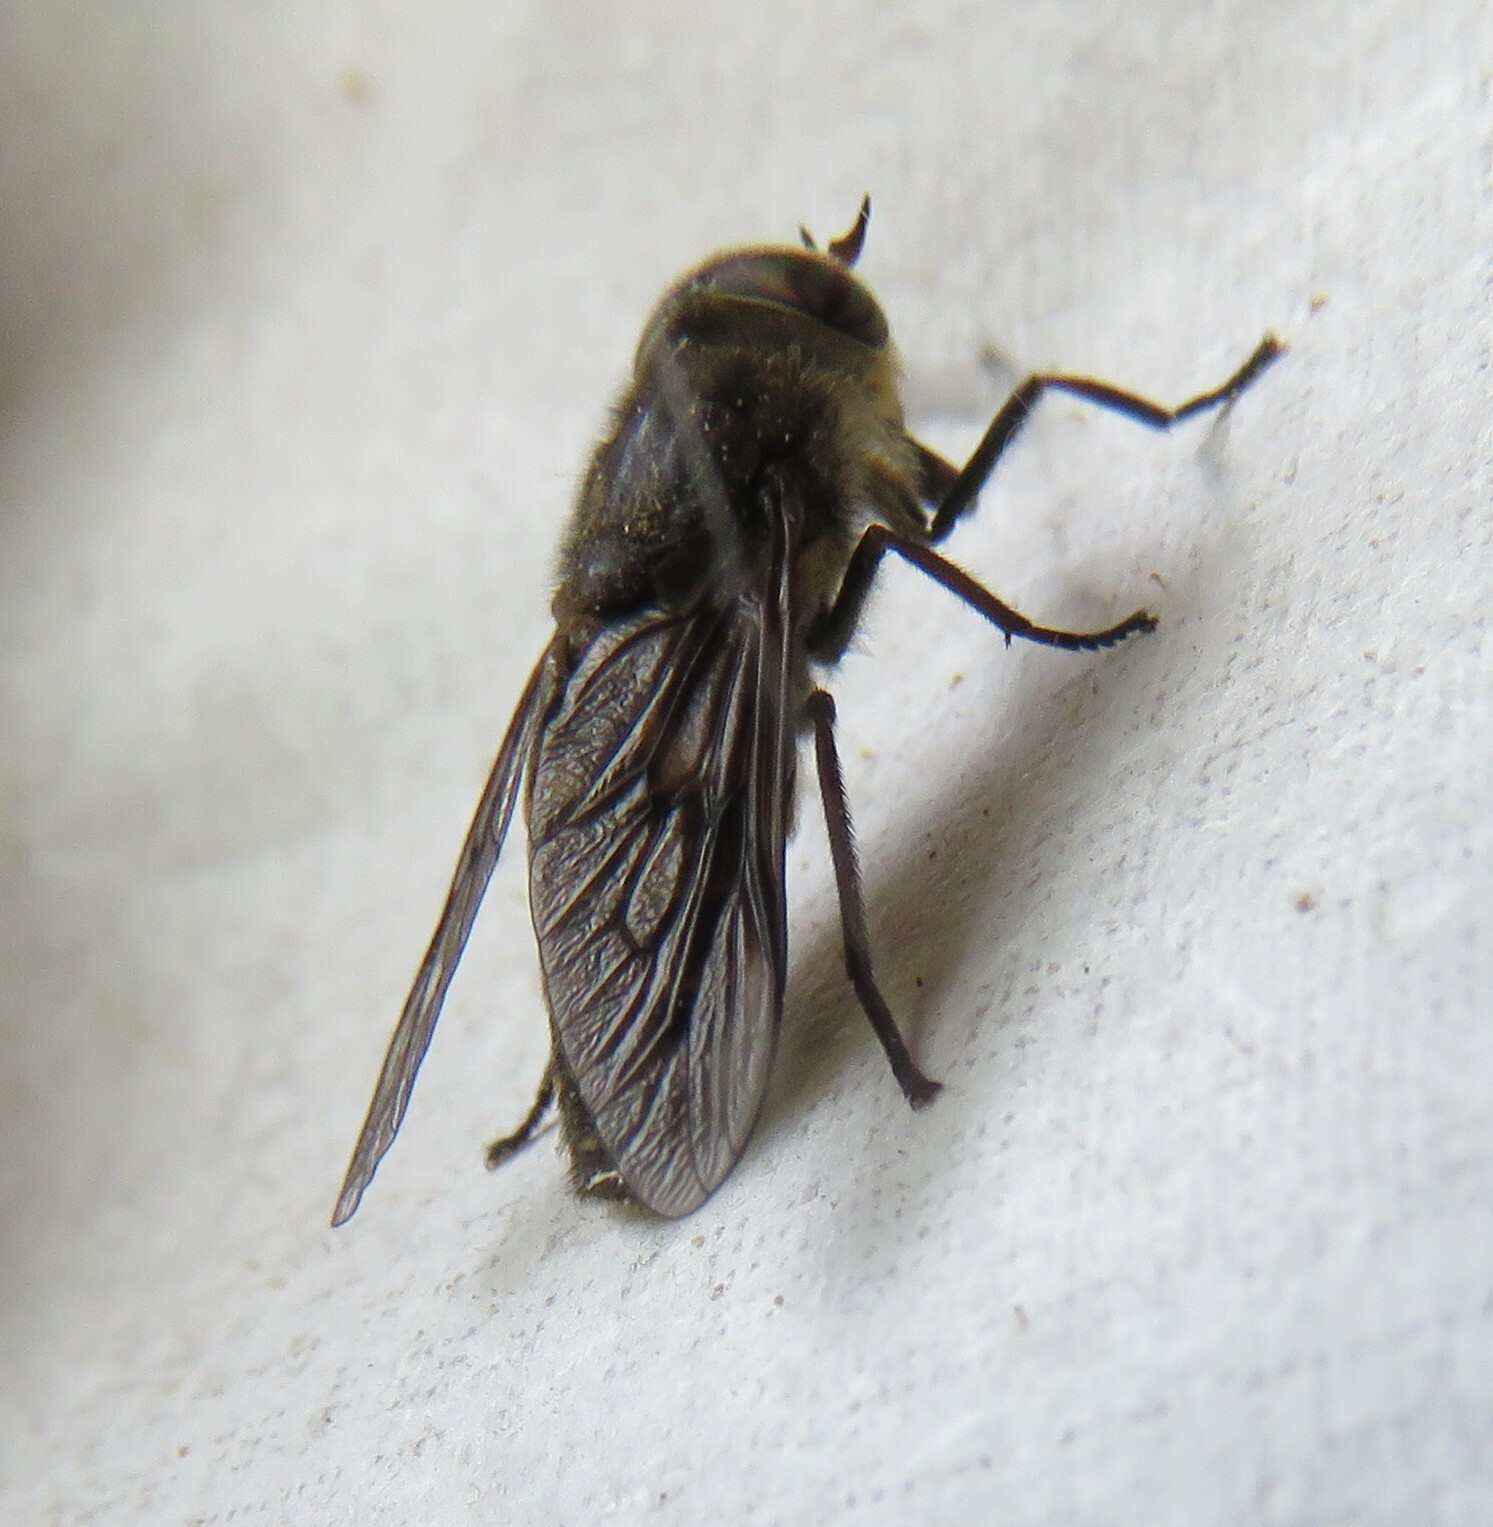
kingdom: Animalia
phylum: Arthropoda
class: Insecta
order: Diptera
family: Tabanidae
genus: Hybomitra
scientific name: Hybomitra lasiophthalma
